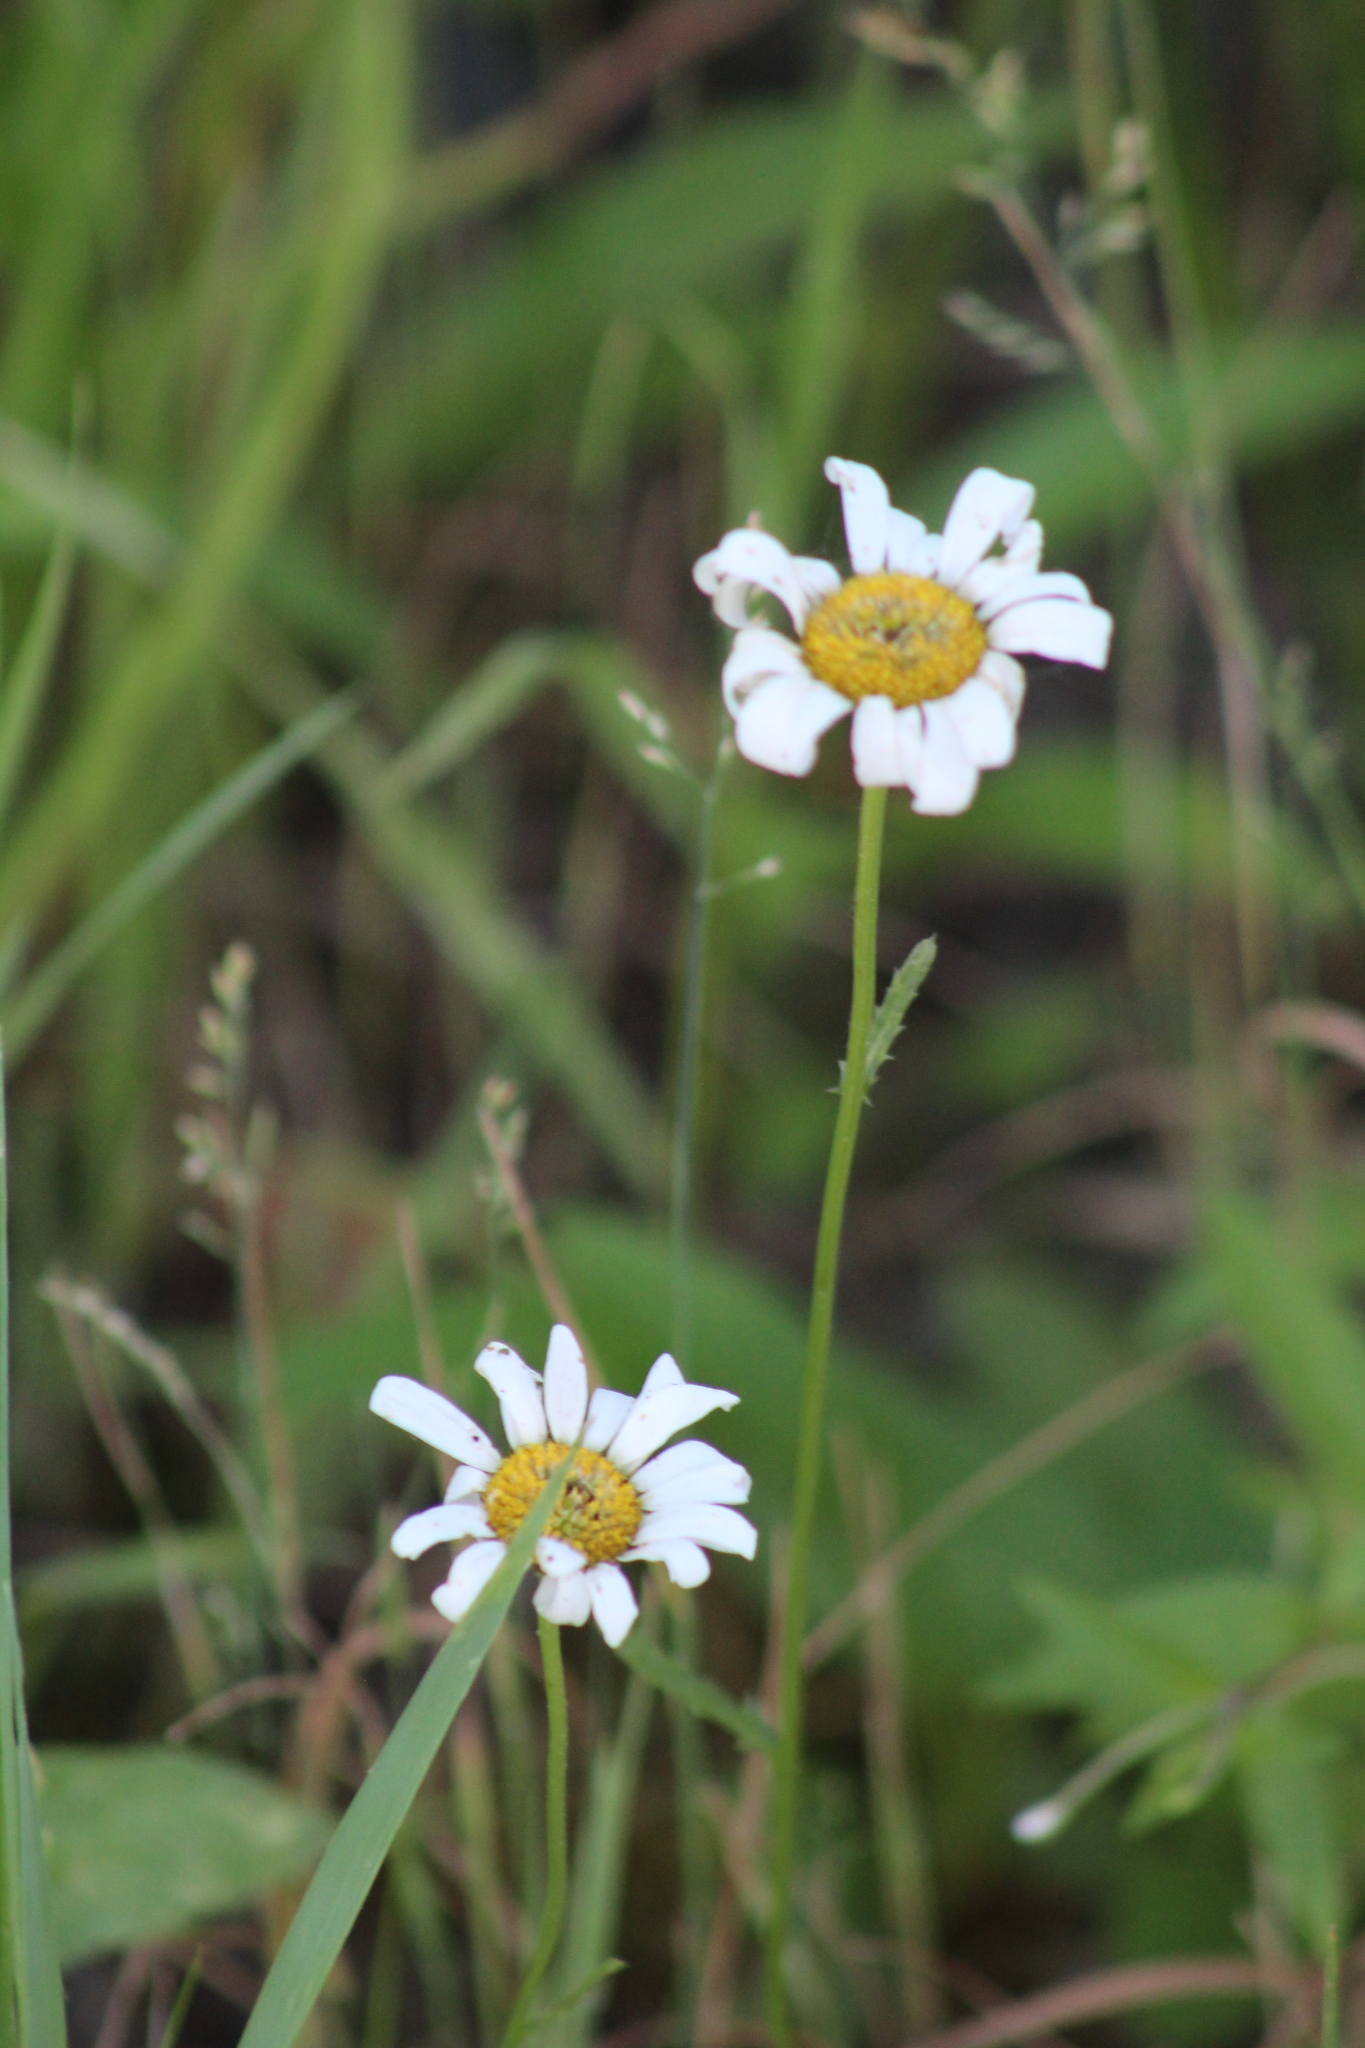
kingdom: Plantae
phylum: Tracheophyta
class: Magnoliopsida
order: Asterales
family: Asteraceae
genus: Leucanthemum
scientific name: Leucanthemum vulgare
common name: Oxeye daisy
